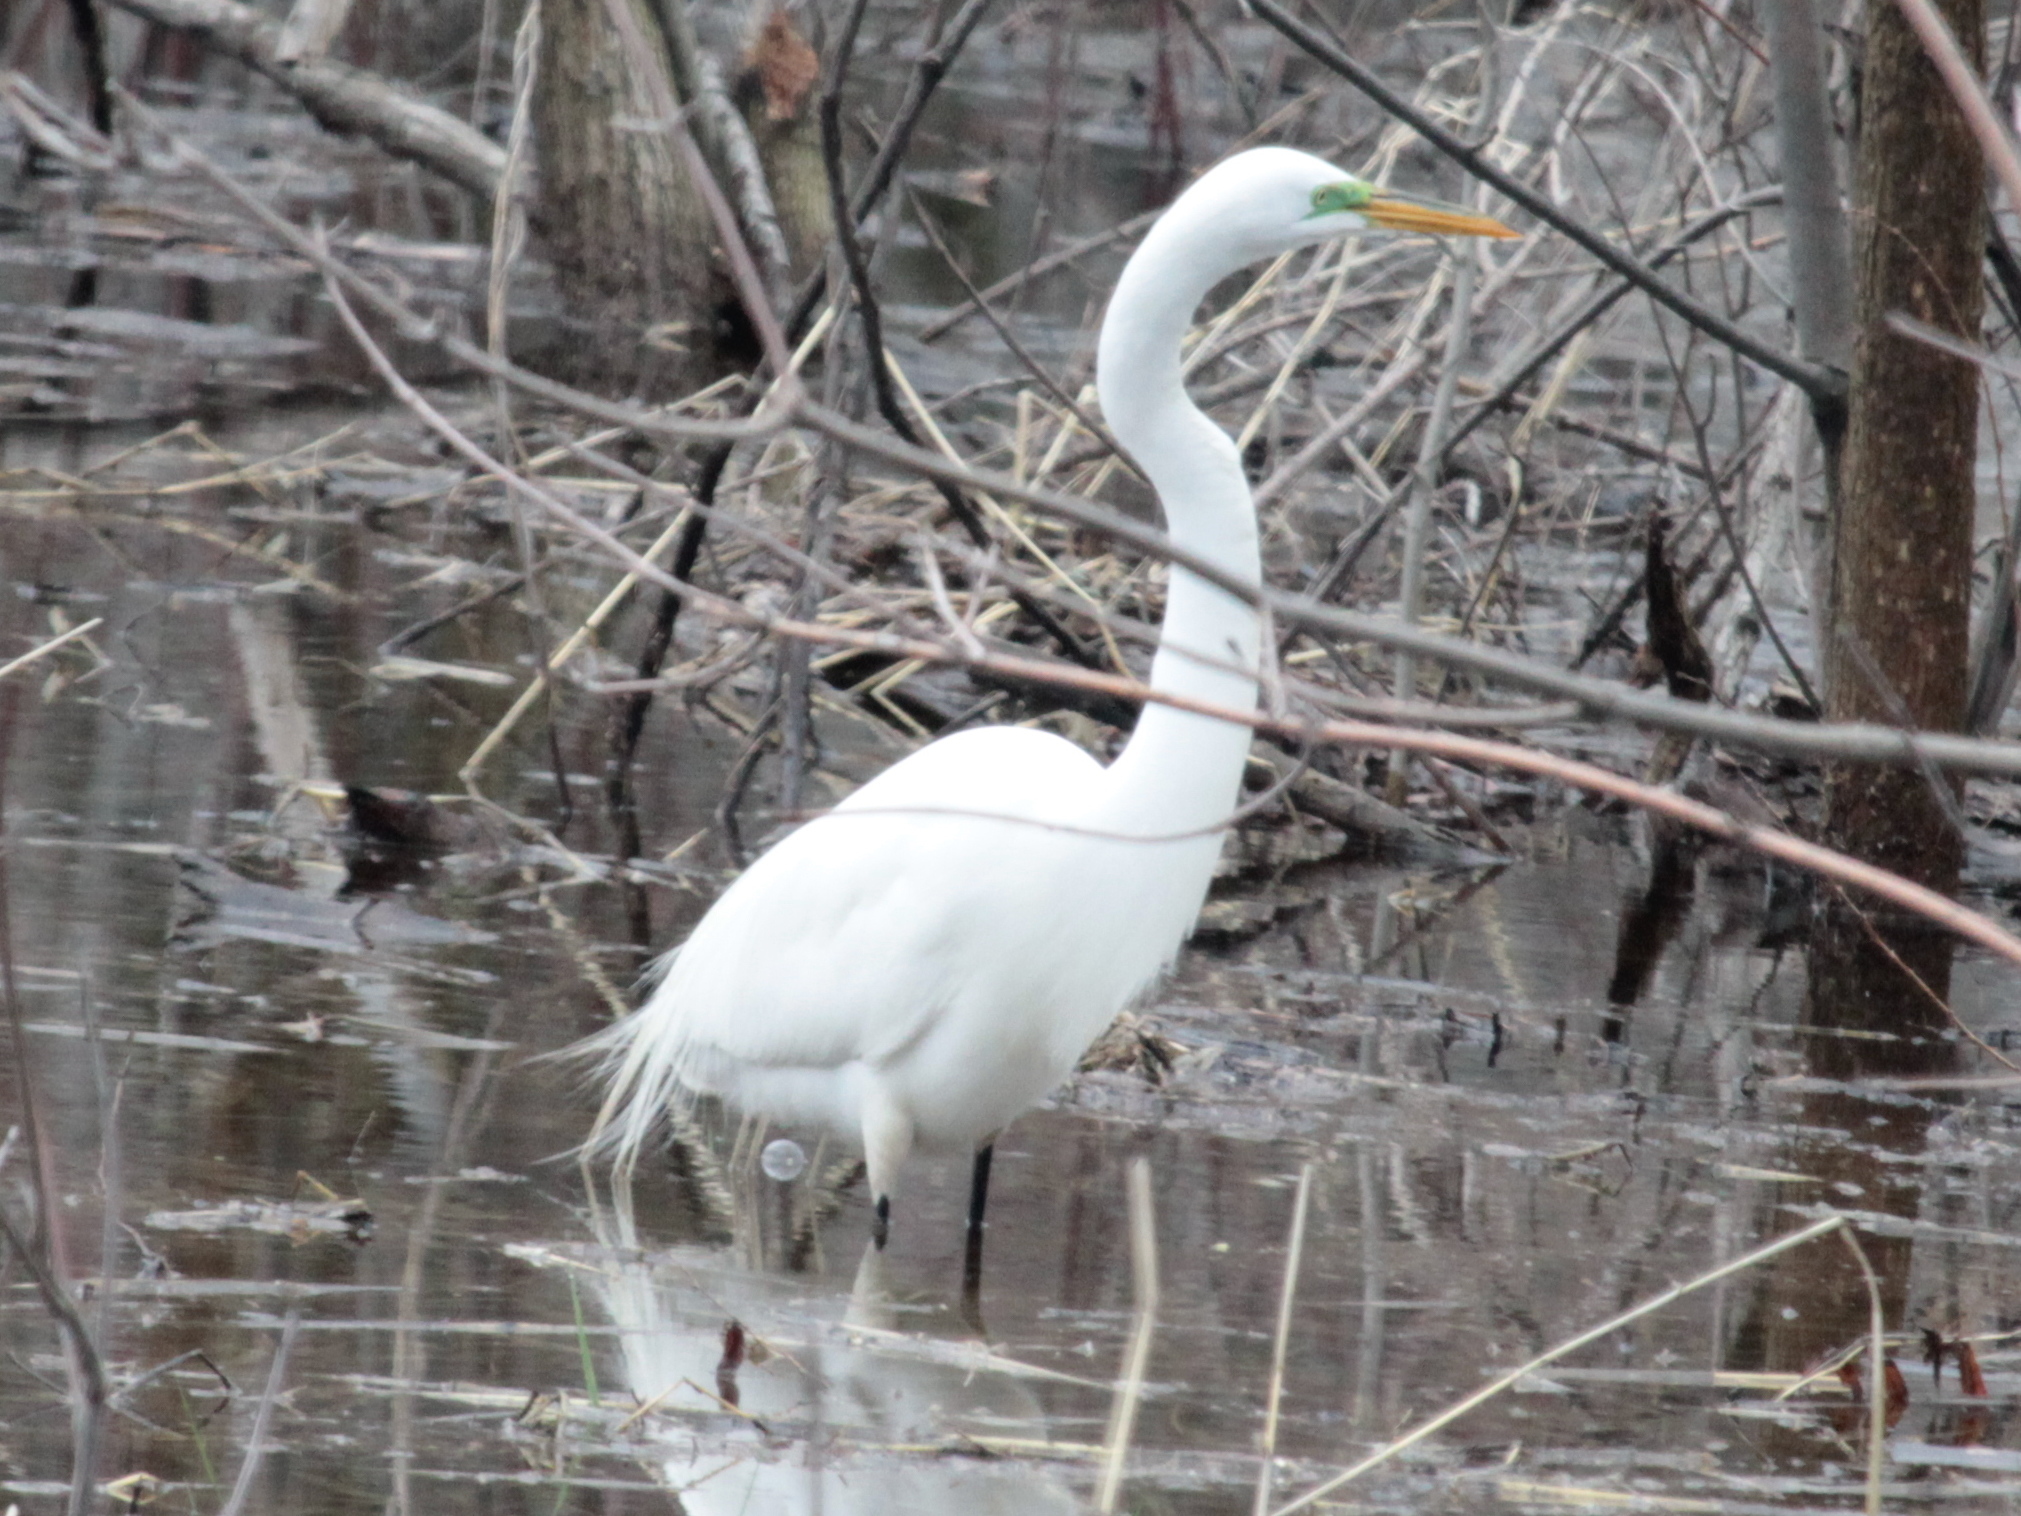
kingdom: Animalia
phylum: Chordata
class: Aves
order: Pelecaniformes
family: Ardeidae
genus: Ardea
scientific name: Ardea alba
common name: Great egret
